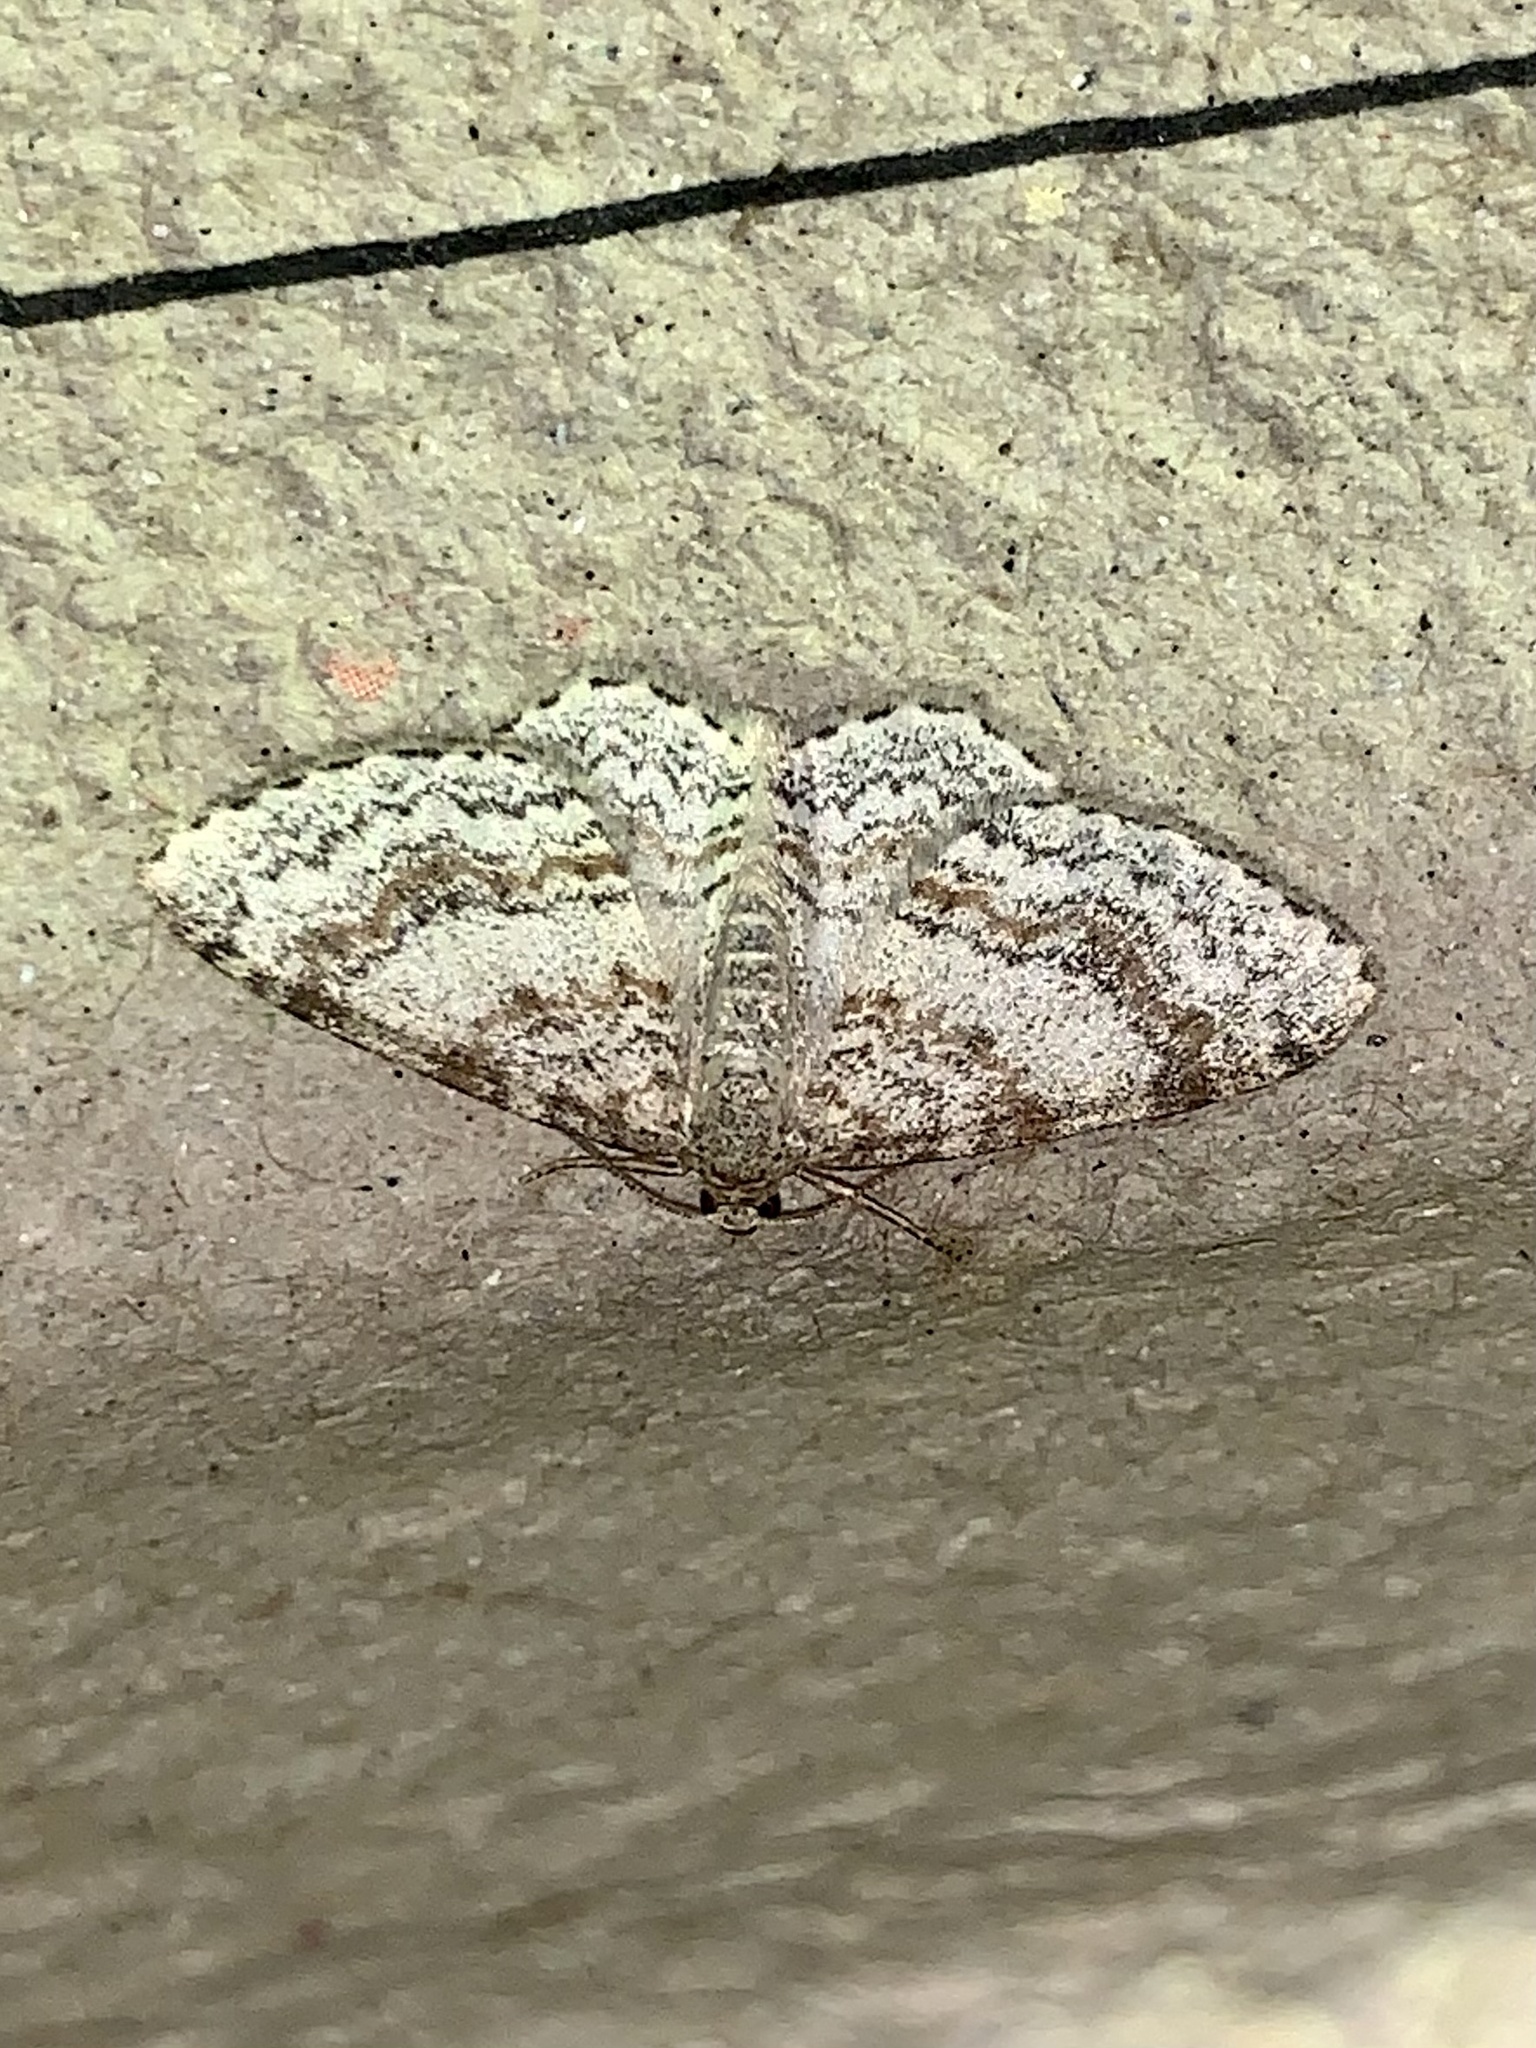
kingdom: Animalia
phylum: Arthropoda
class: Insecta
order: Lepidoptera
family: Geometridae
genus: Hydrelia
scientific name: Hydrelia sylvata
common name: Waved carpet
